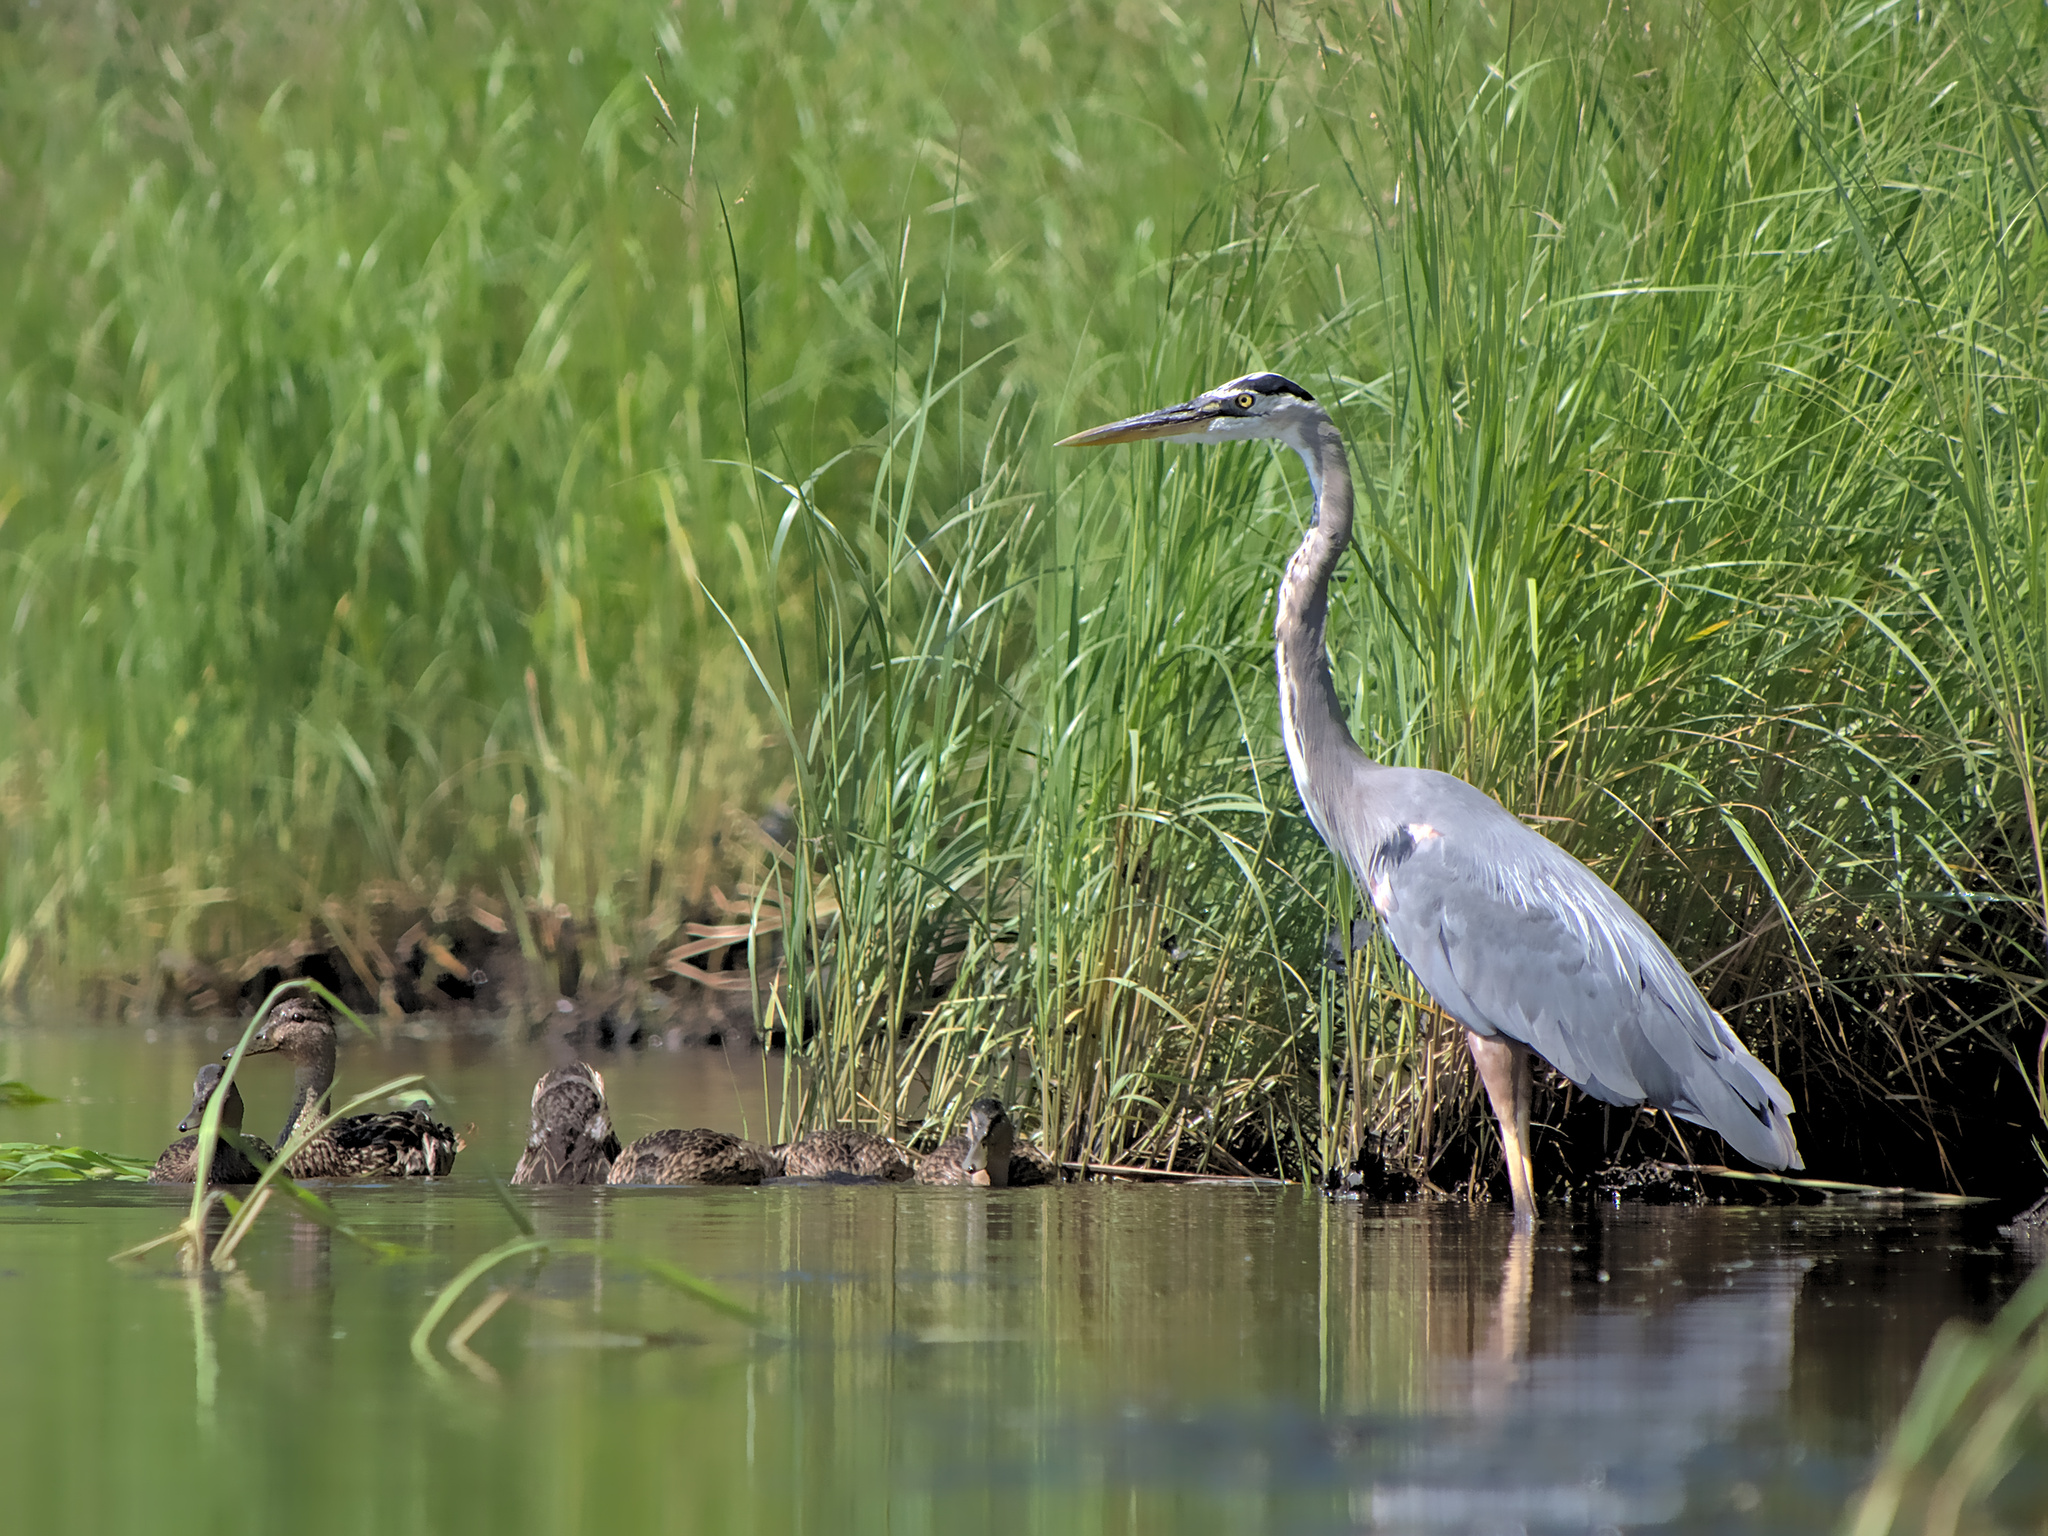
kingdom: Animalia
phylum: Chordata
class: Aves
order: Pelecaniformes
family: Ardeidae
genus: Ardea
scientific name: Ardea herodias
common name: Great blue heron
